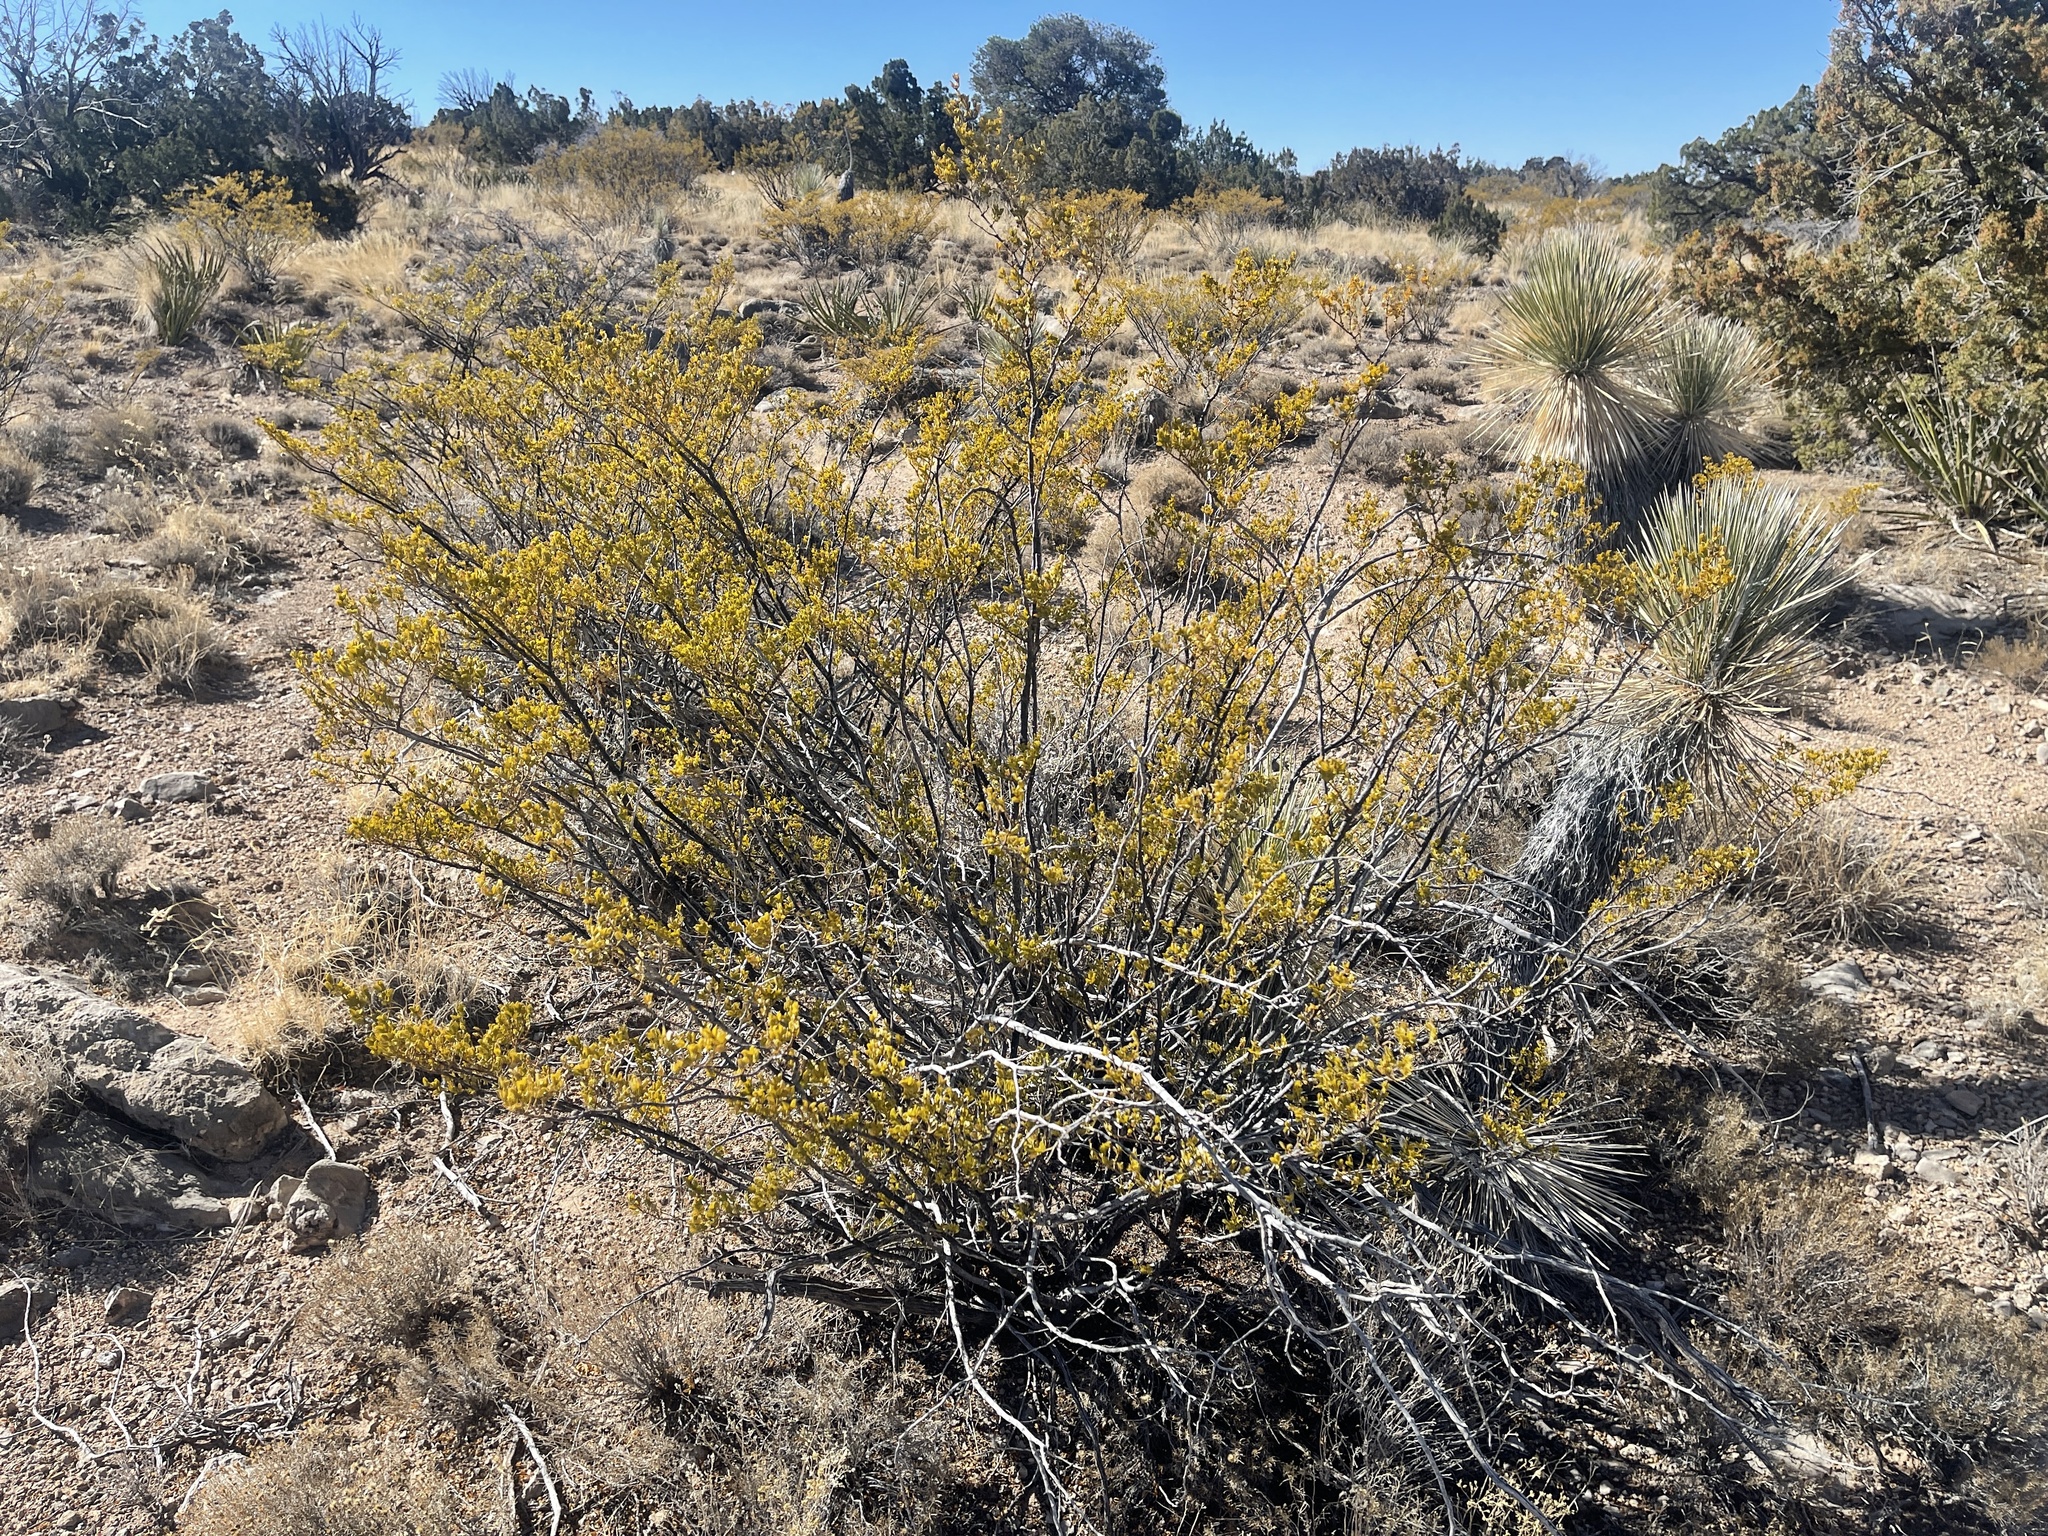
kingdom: Plantae
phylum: Tracheophyta
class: Magnoliopsida
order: Zygophyllales
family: Zygophyllaceae
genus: Larrea
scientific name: Larrea tridentata
